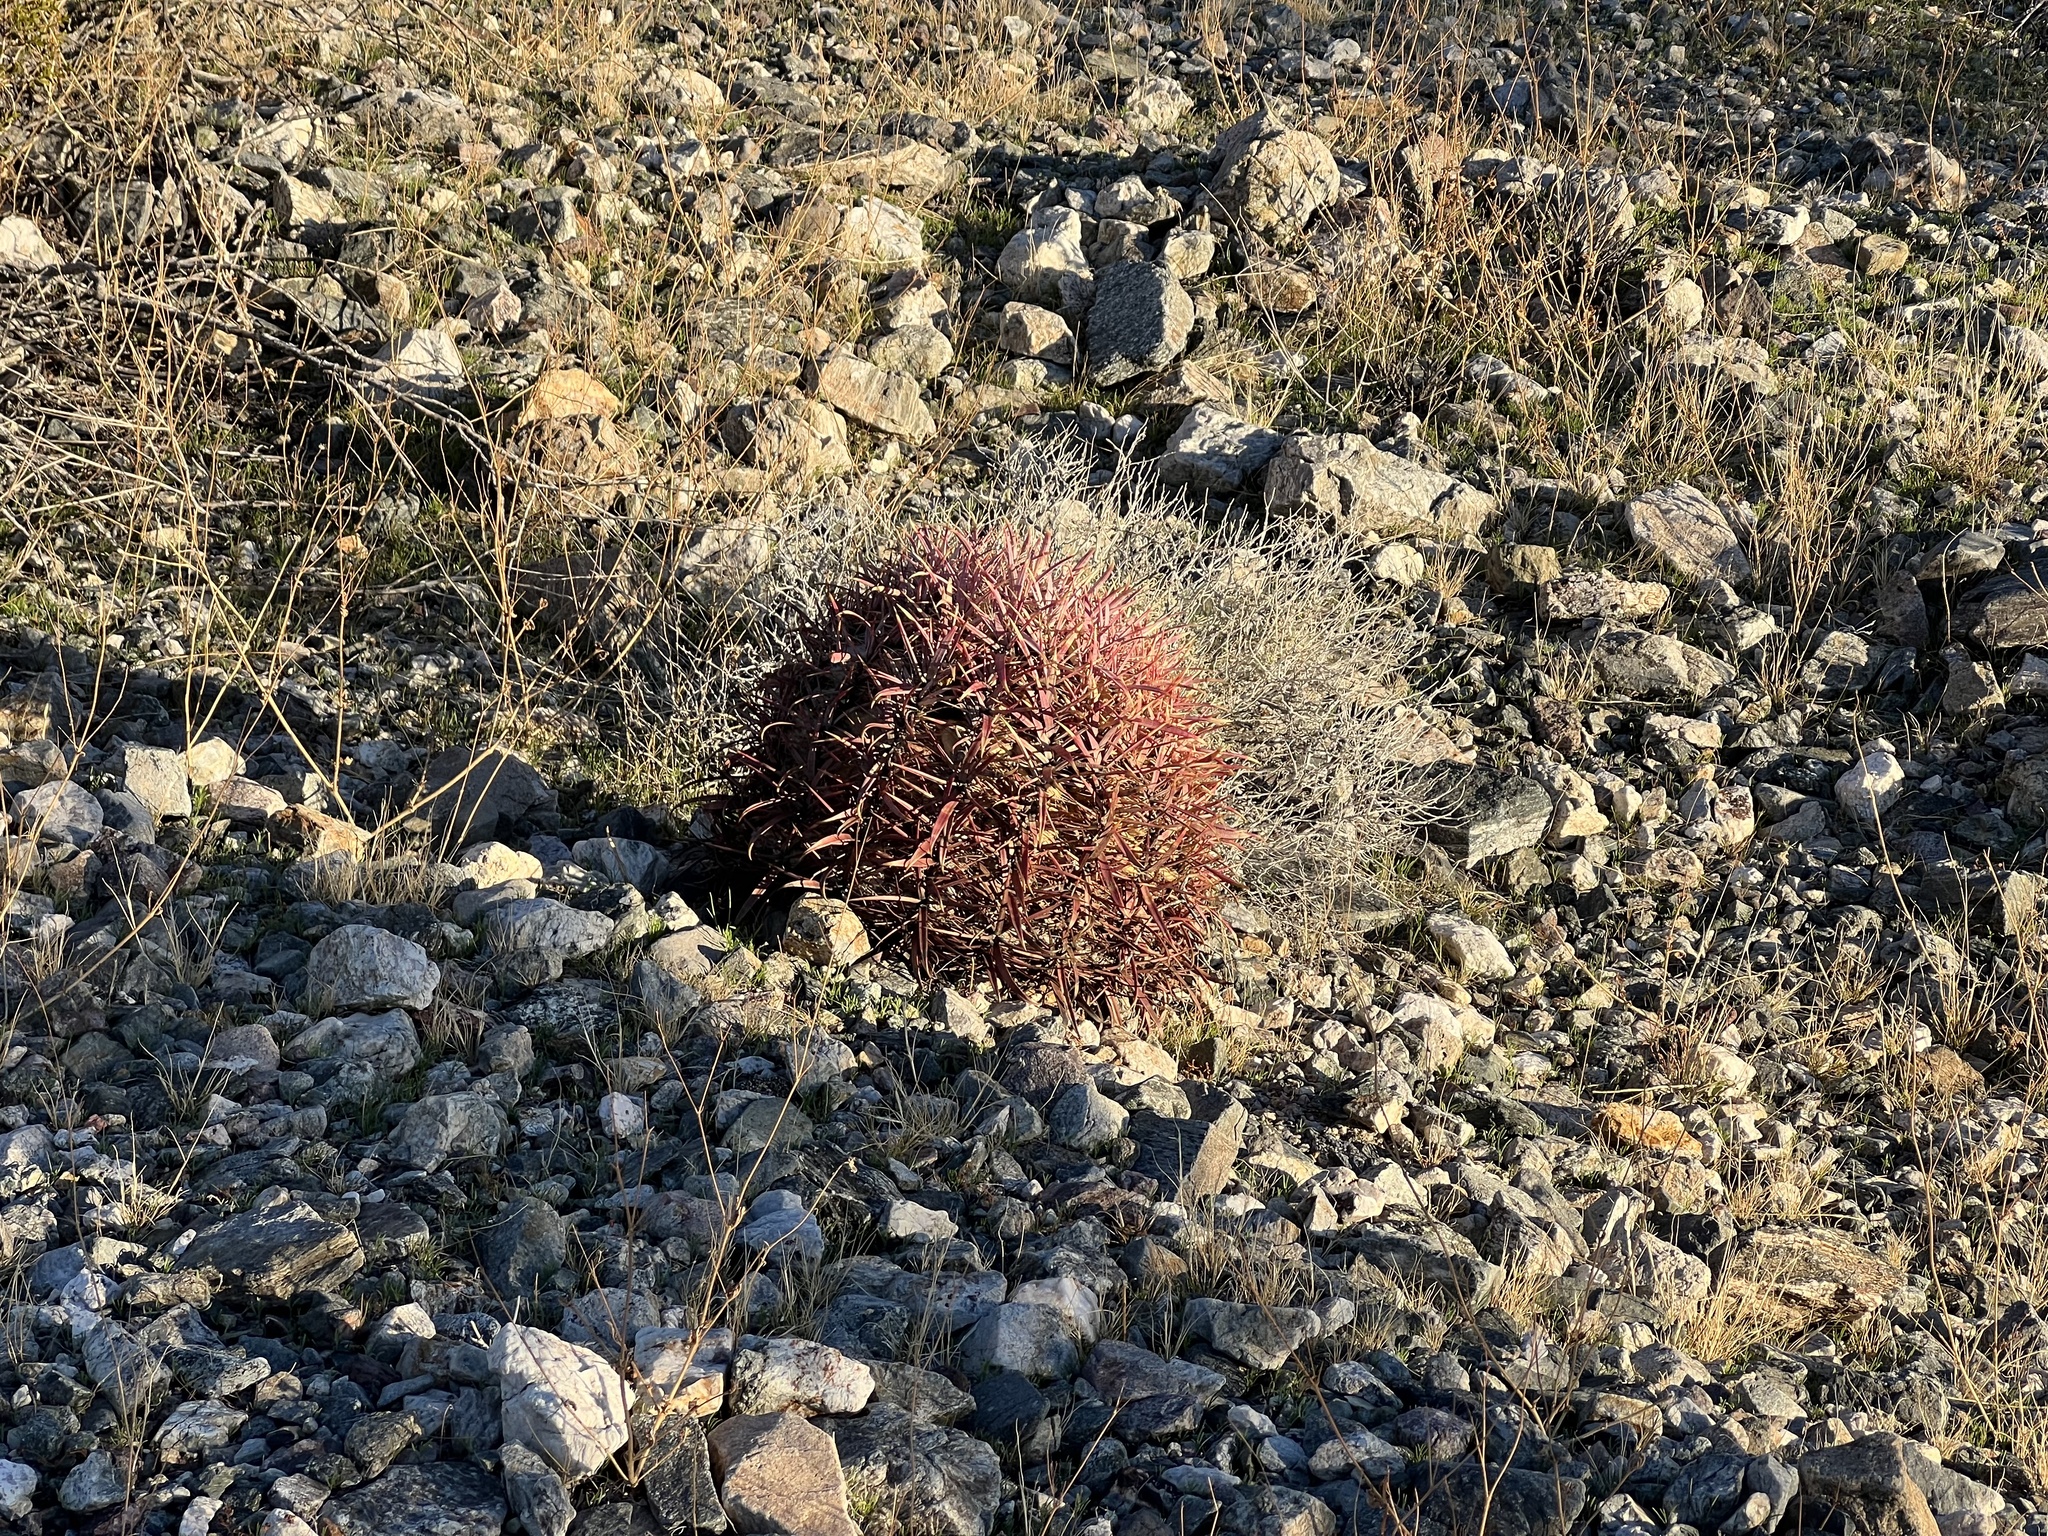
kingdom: Plantae
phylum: Tracheophyta
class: Magnoliopsida
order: Caryophyllales
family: Cactaceae
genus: Ferocactus
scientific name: Ferocactus cylindraceus
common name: California barrel cactus
